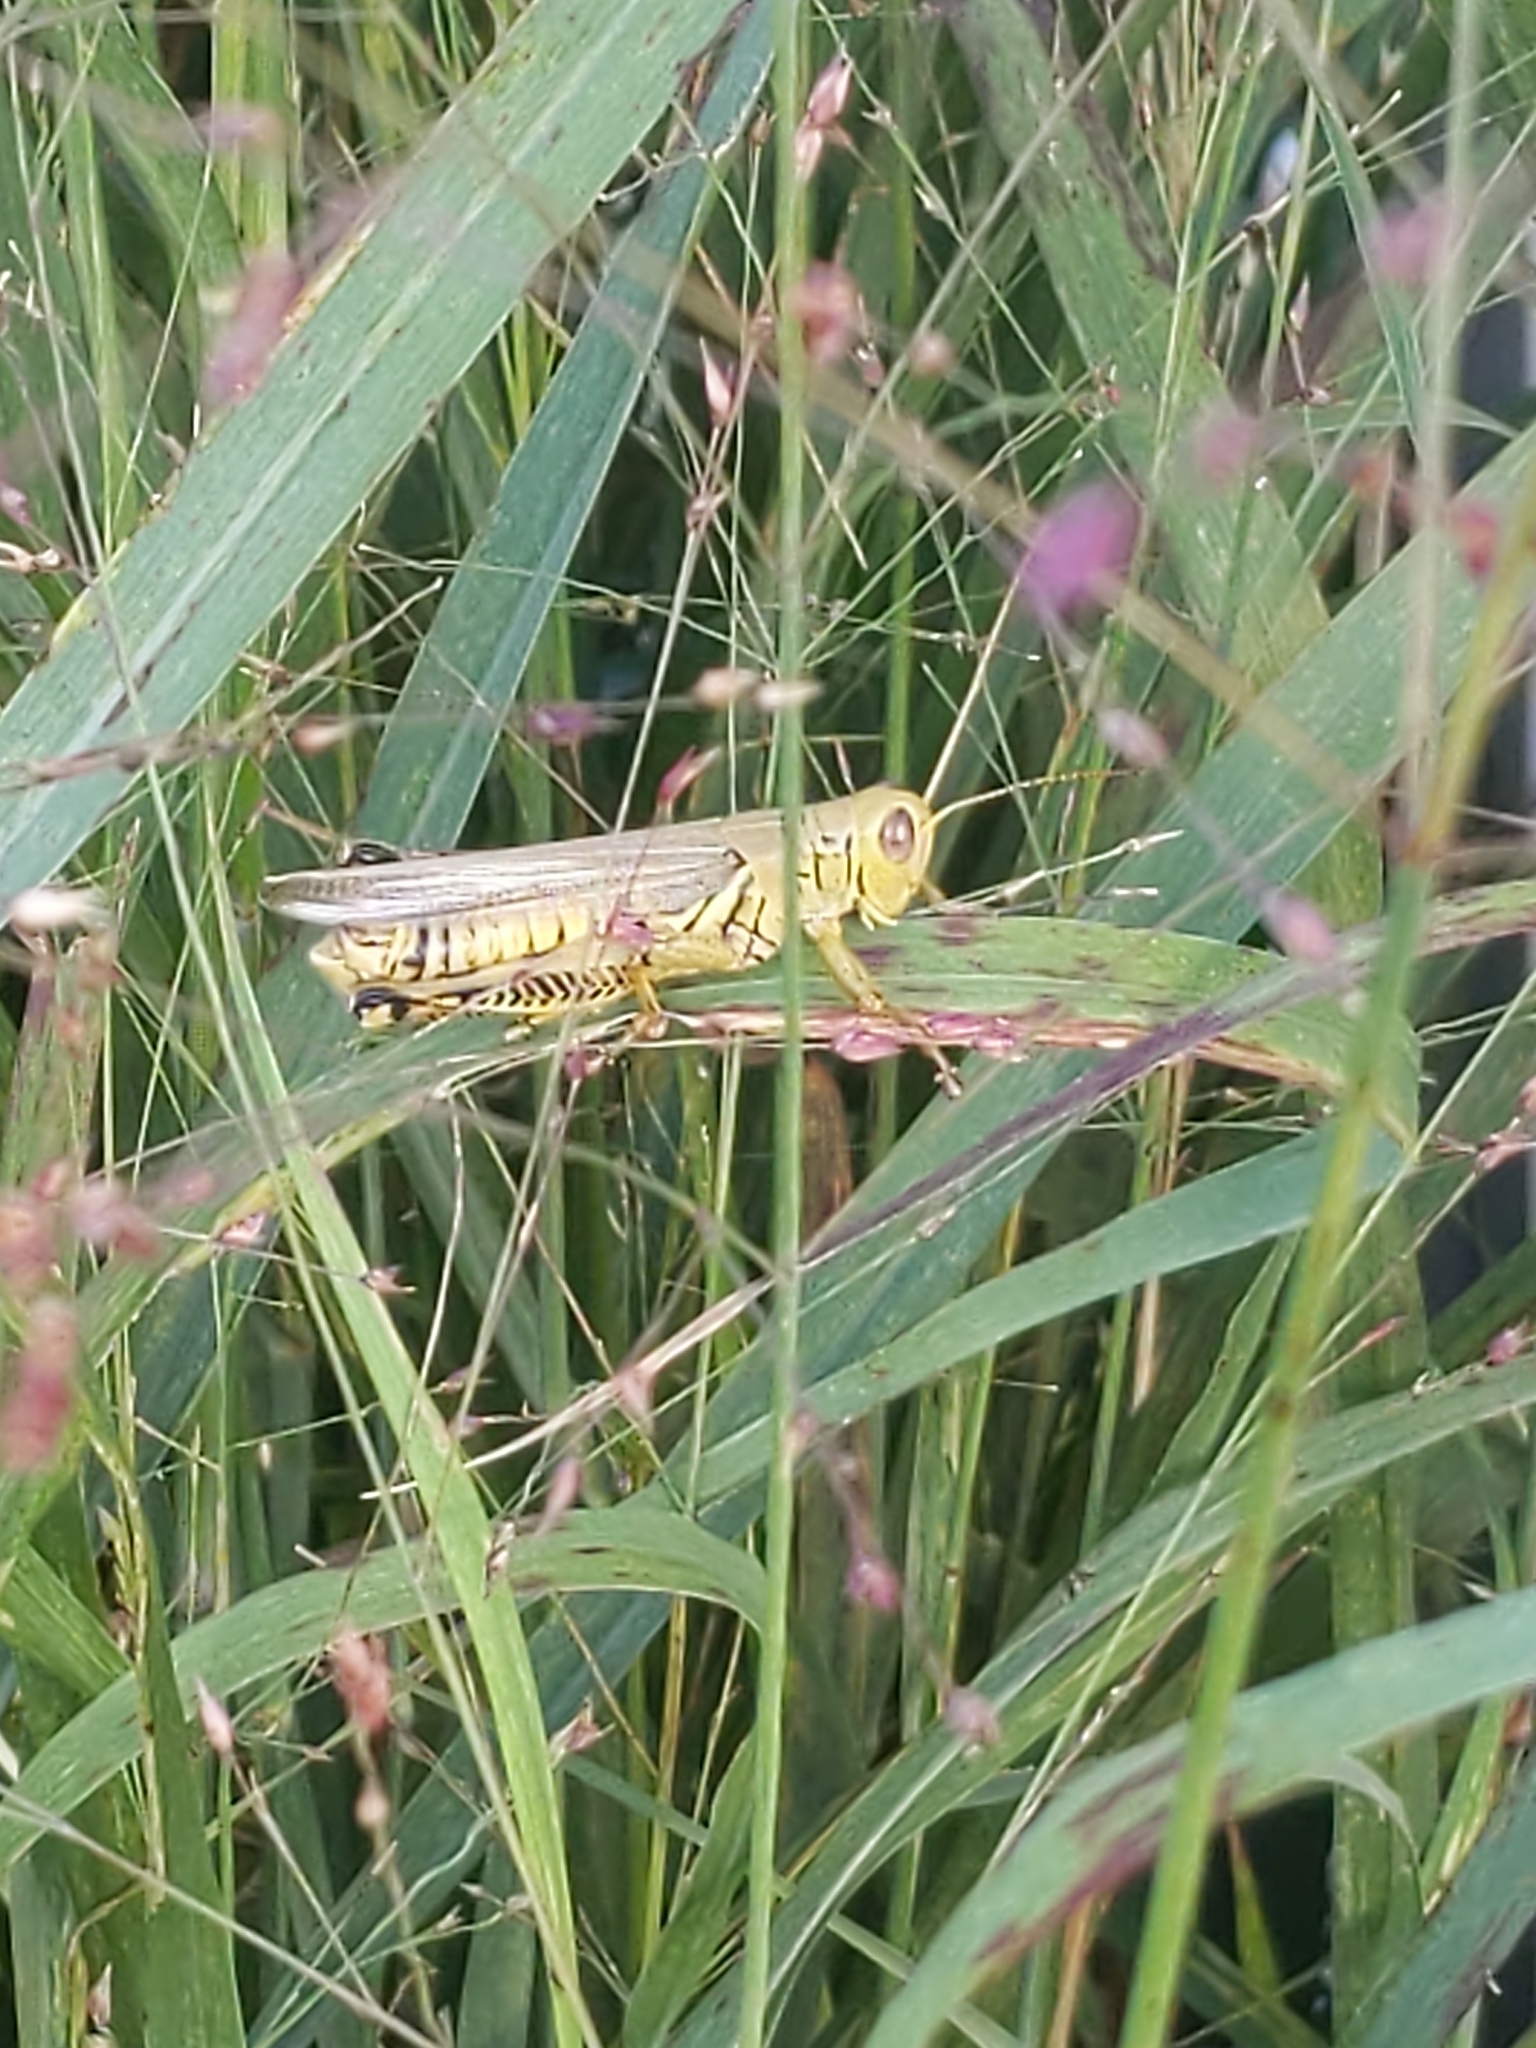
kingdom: Animalia
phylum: Arthropoda
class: Insecta
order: Orthoptera
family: Acrididae
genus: Melanoplus
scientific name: Melanoplus differentialis
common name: Differential grasshopper
